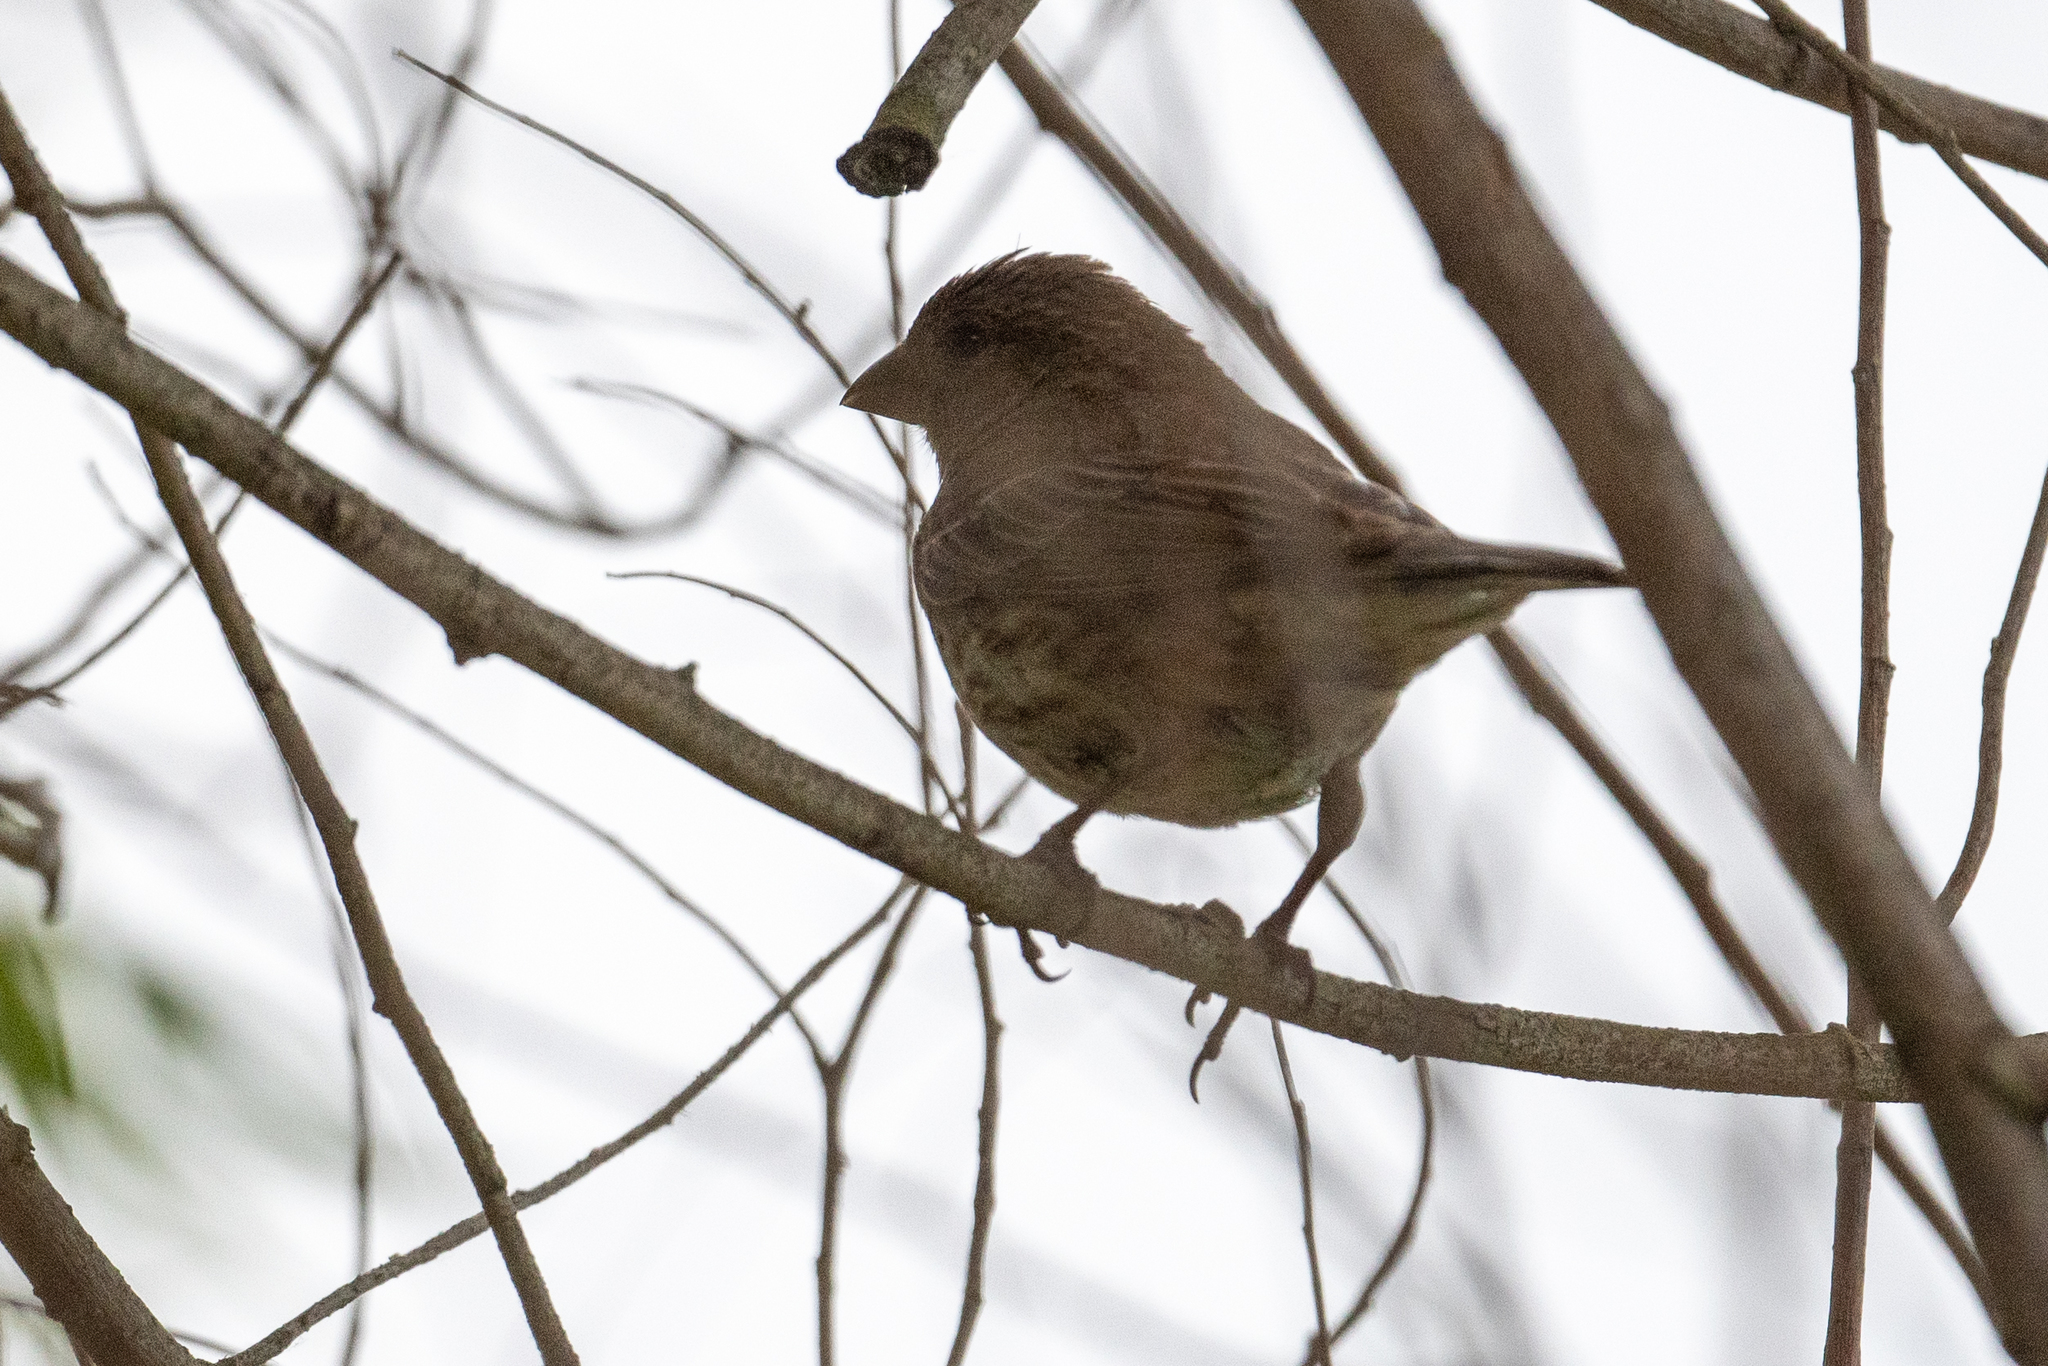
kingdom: Animalia
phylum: Chordata
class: Aves
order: Passeriformes
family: Fringillidae
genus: Haemorhous
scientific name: Haemorhous mexicanus
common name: House finch
